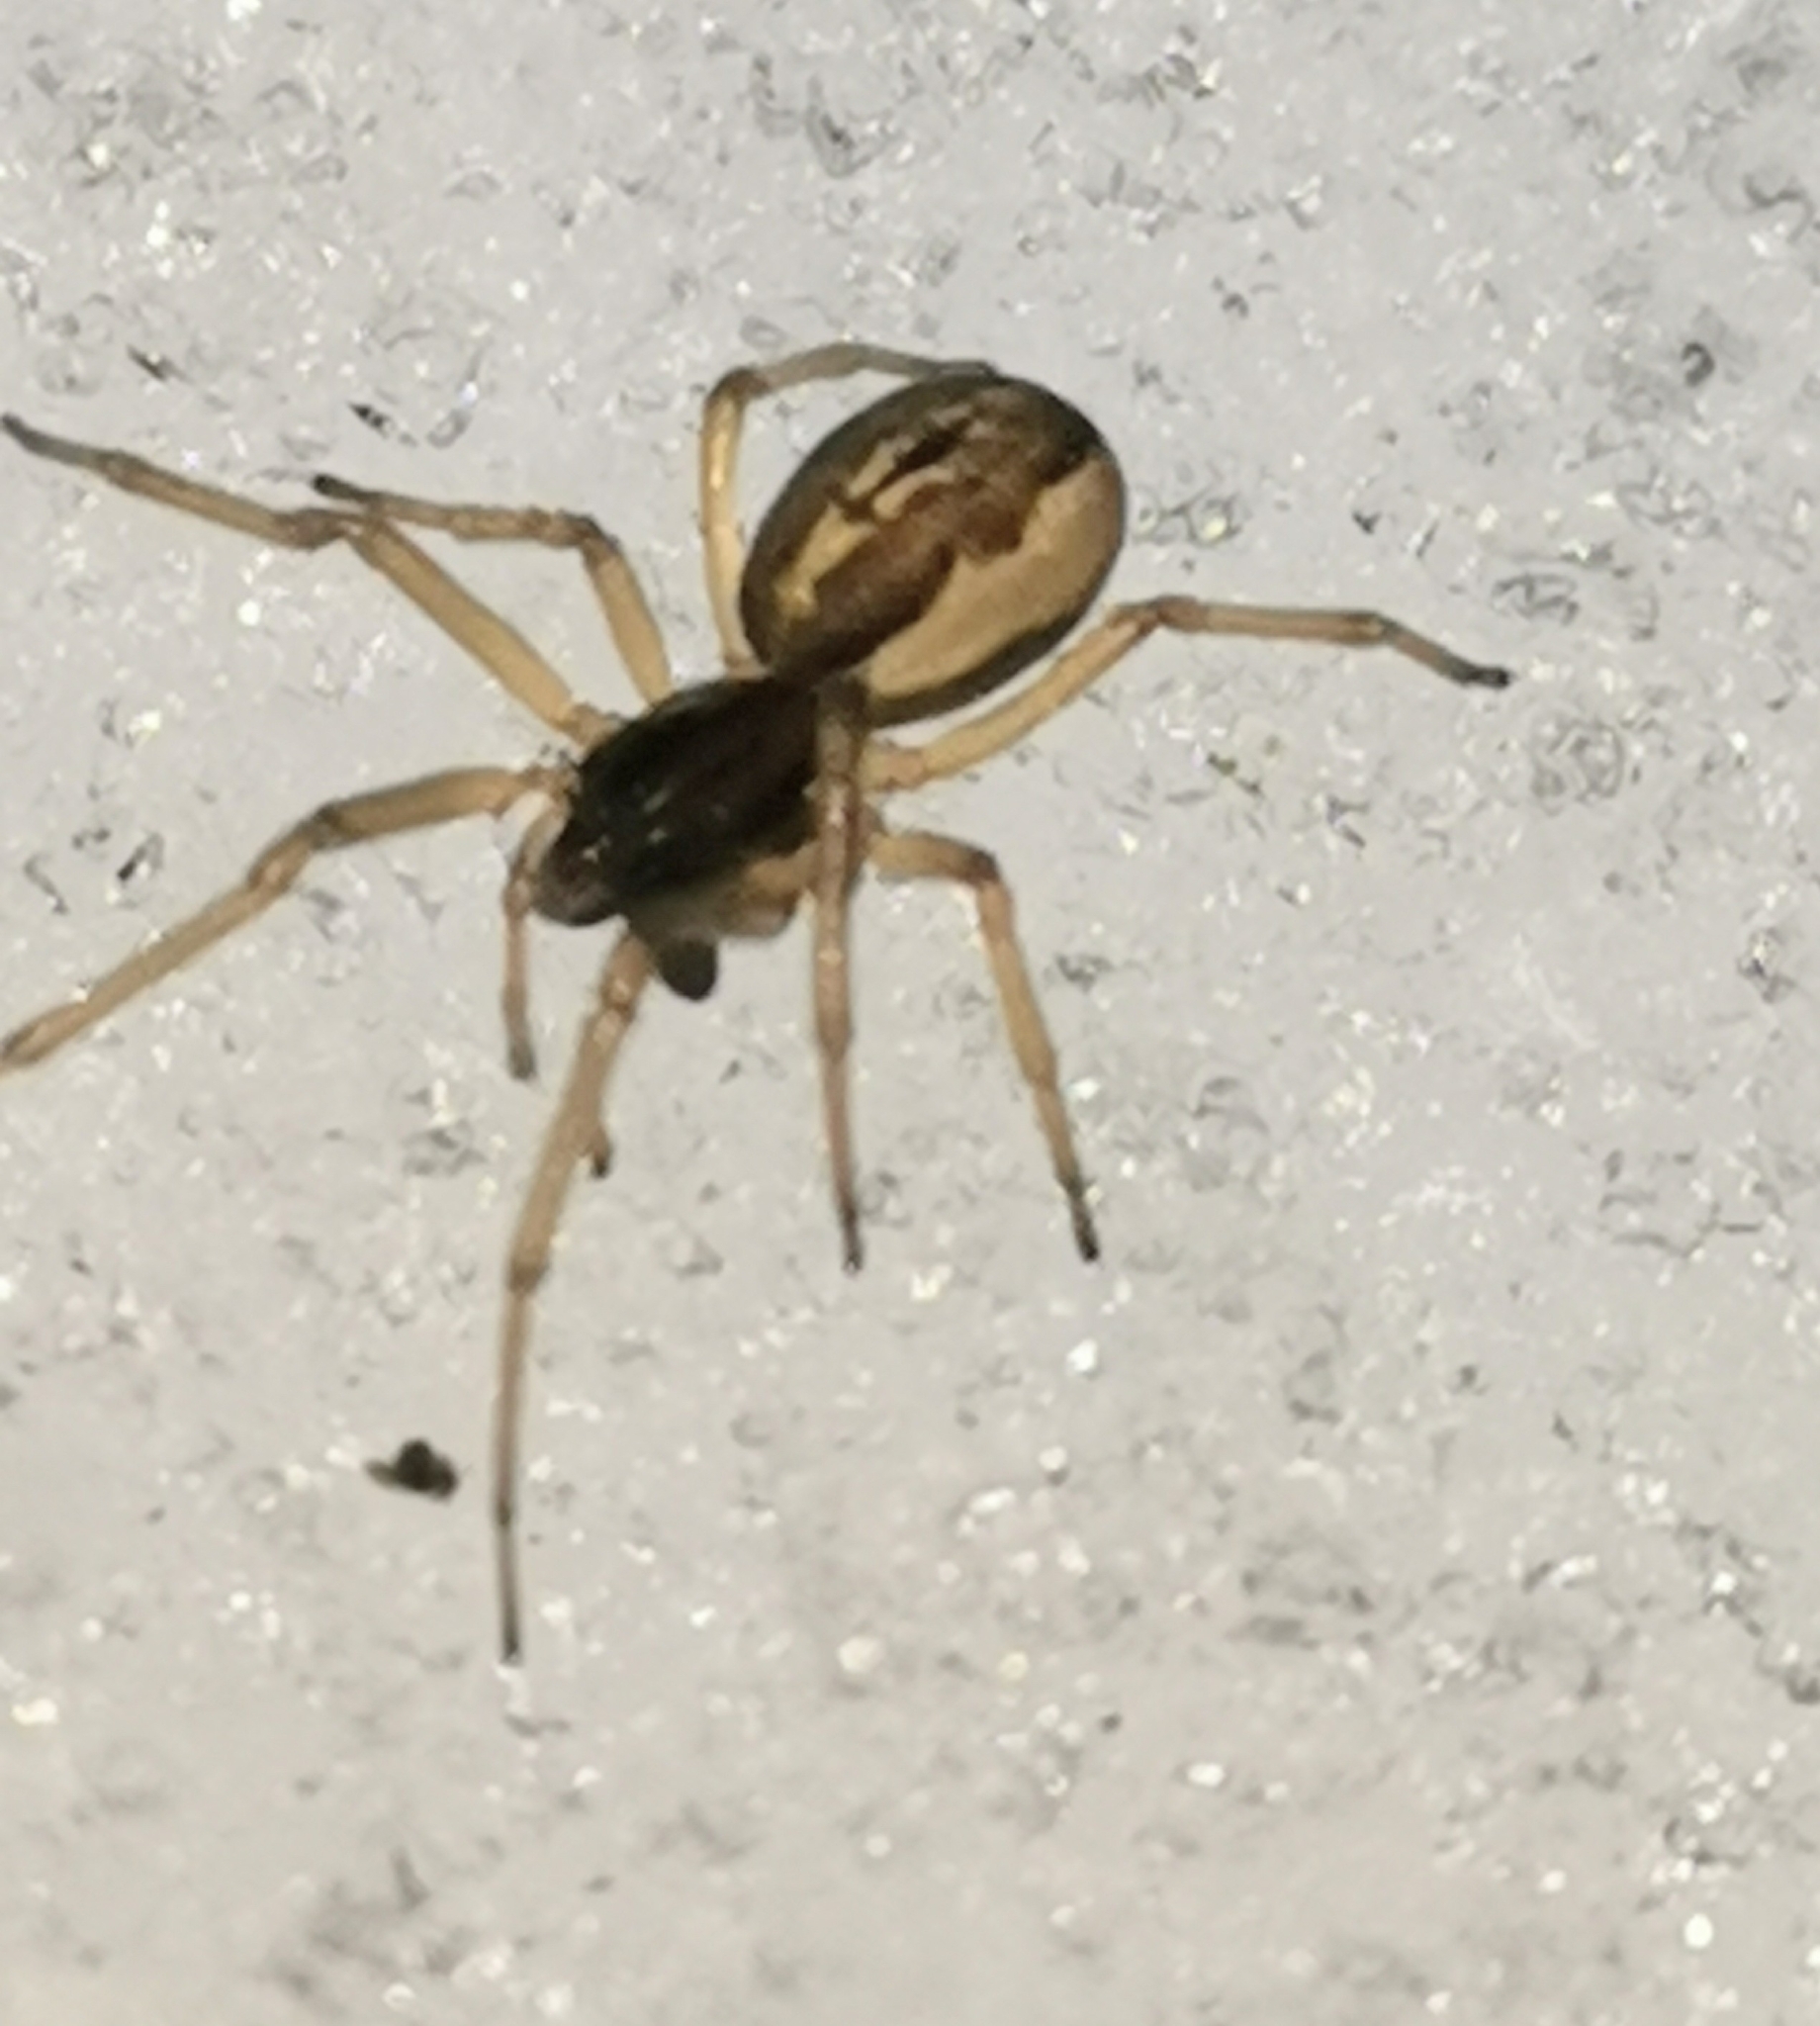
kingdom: Animalia
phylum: Arthropoda
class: Arachnida
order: Araneae
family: Tetragnathidae
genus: Pachygnatha
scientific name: Pachygnatha degeeri
